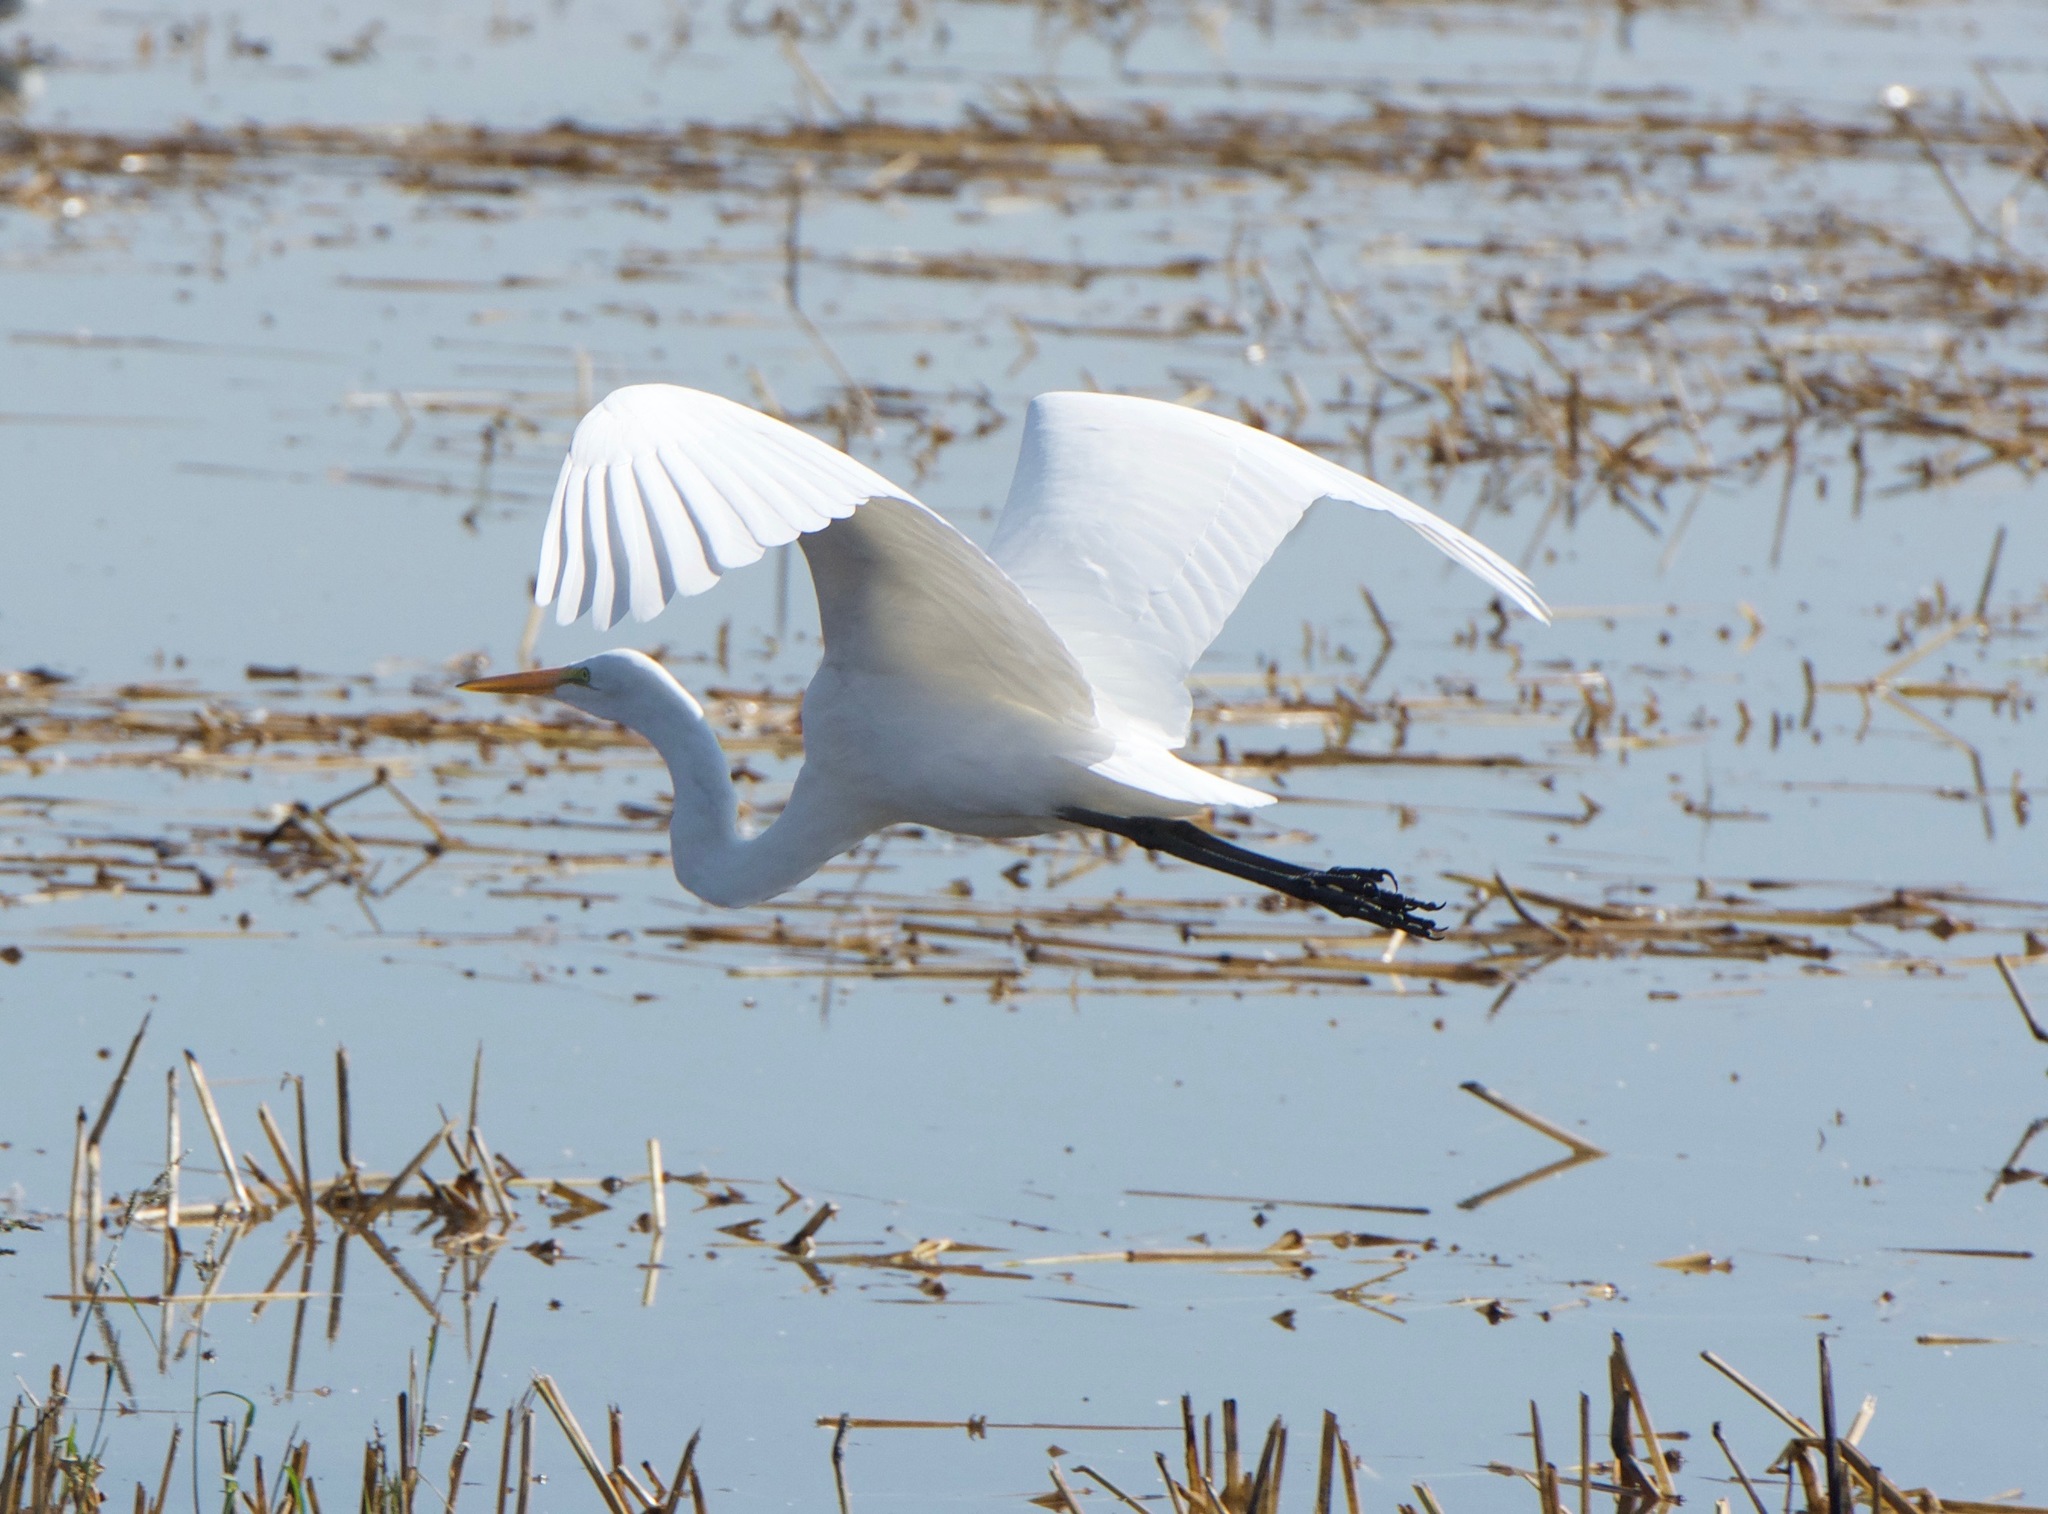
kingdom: Animalia
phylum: Chordata
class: Aves
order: Pelecaniformes
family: Ardeidae
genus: Ardea
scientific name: Ardea alba
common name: Great egret
